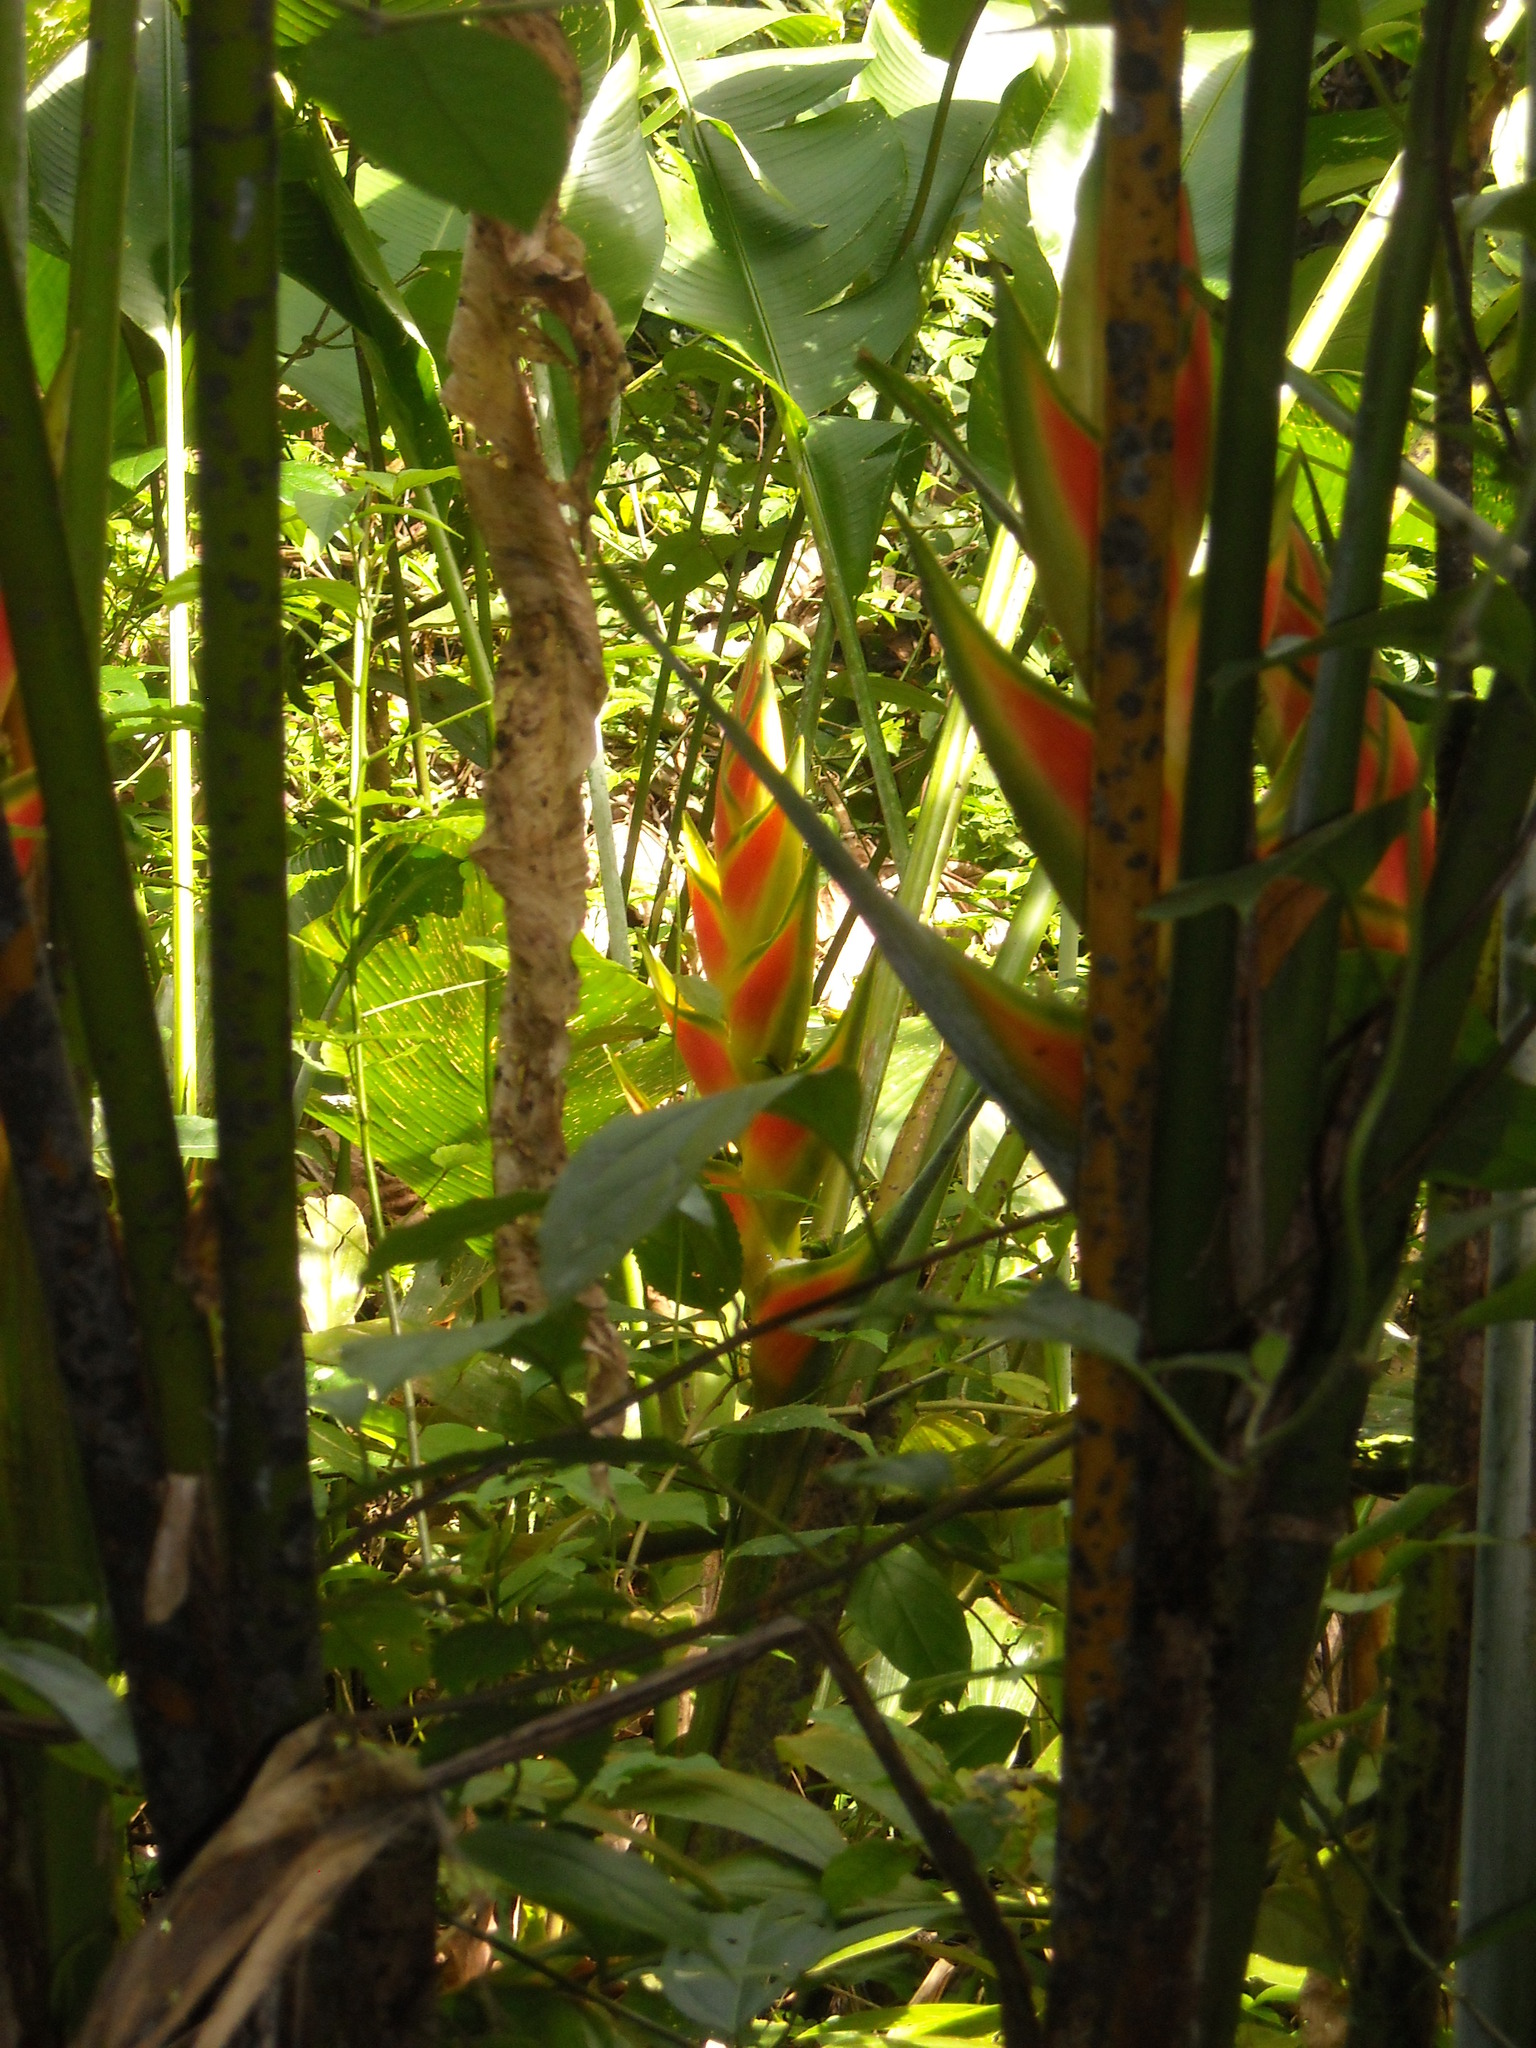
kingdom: Plantae
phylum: Tracheophyta
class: Liliopsida
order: Zingiberales
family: Heliconiaceae
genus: Heliconia
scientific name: Heliconia wagneriana
